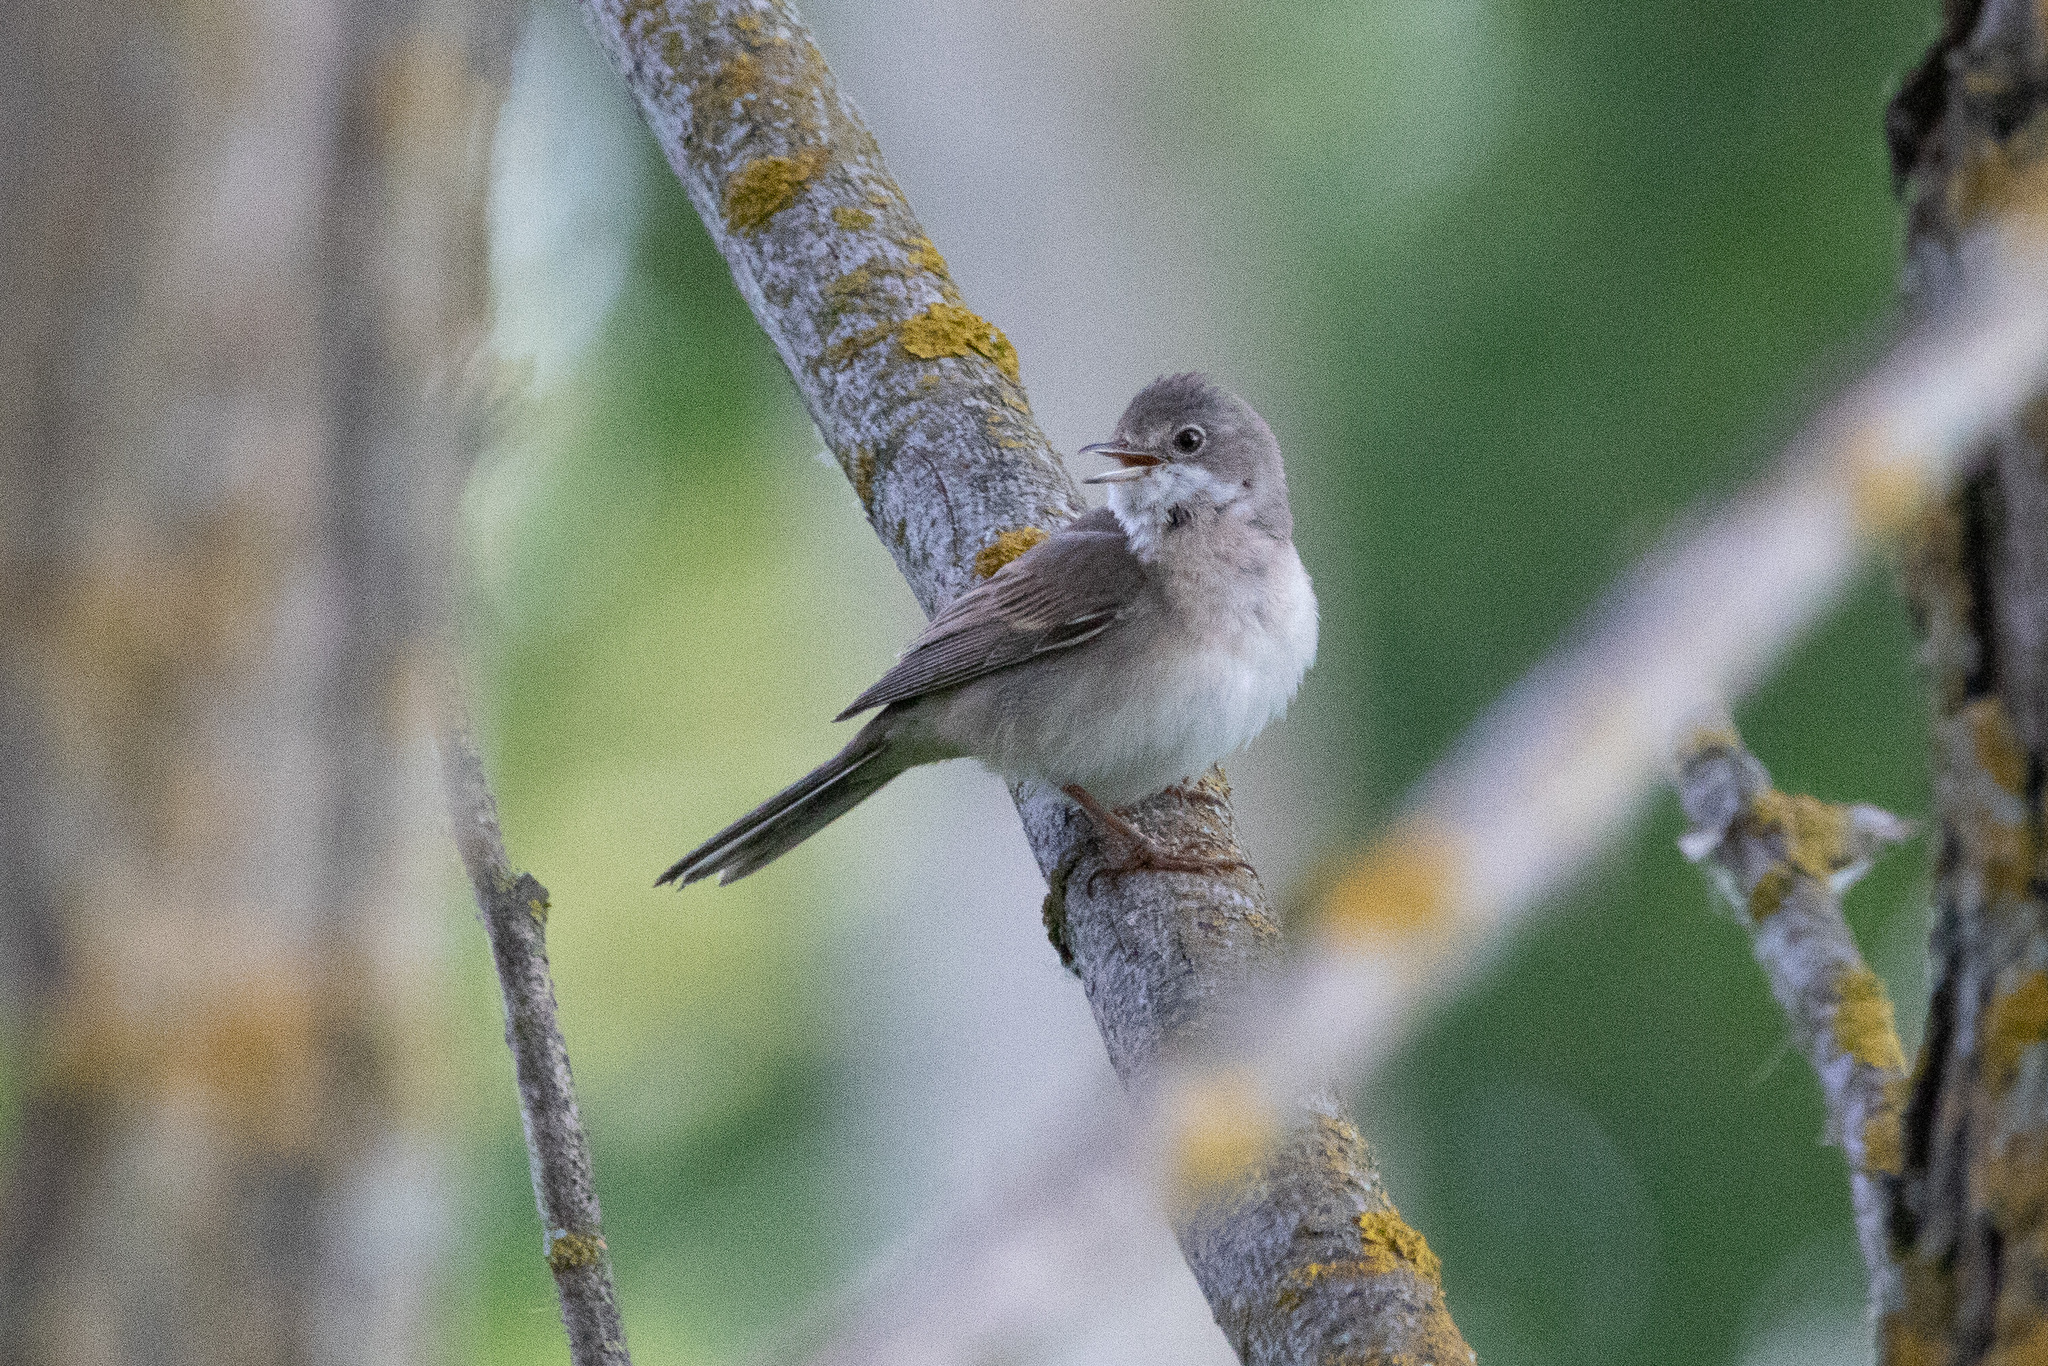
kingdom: Animalia
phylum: Chordata
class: Aves
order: Passeriformes
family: Sylviidae
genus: Sylvia
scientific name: Sylvia communis
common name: Common whitethroat
